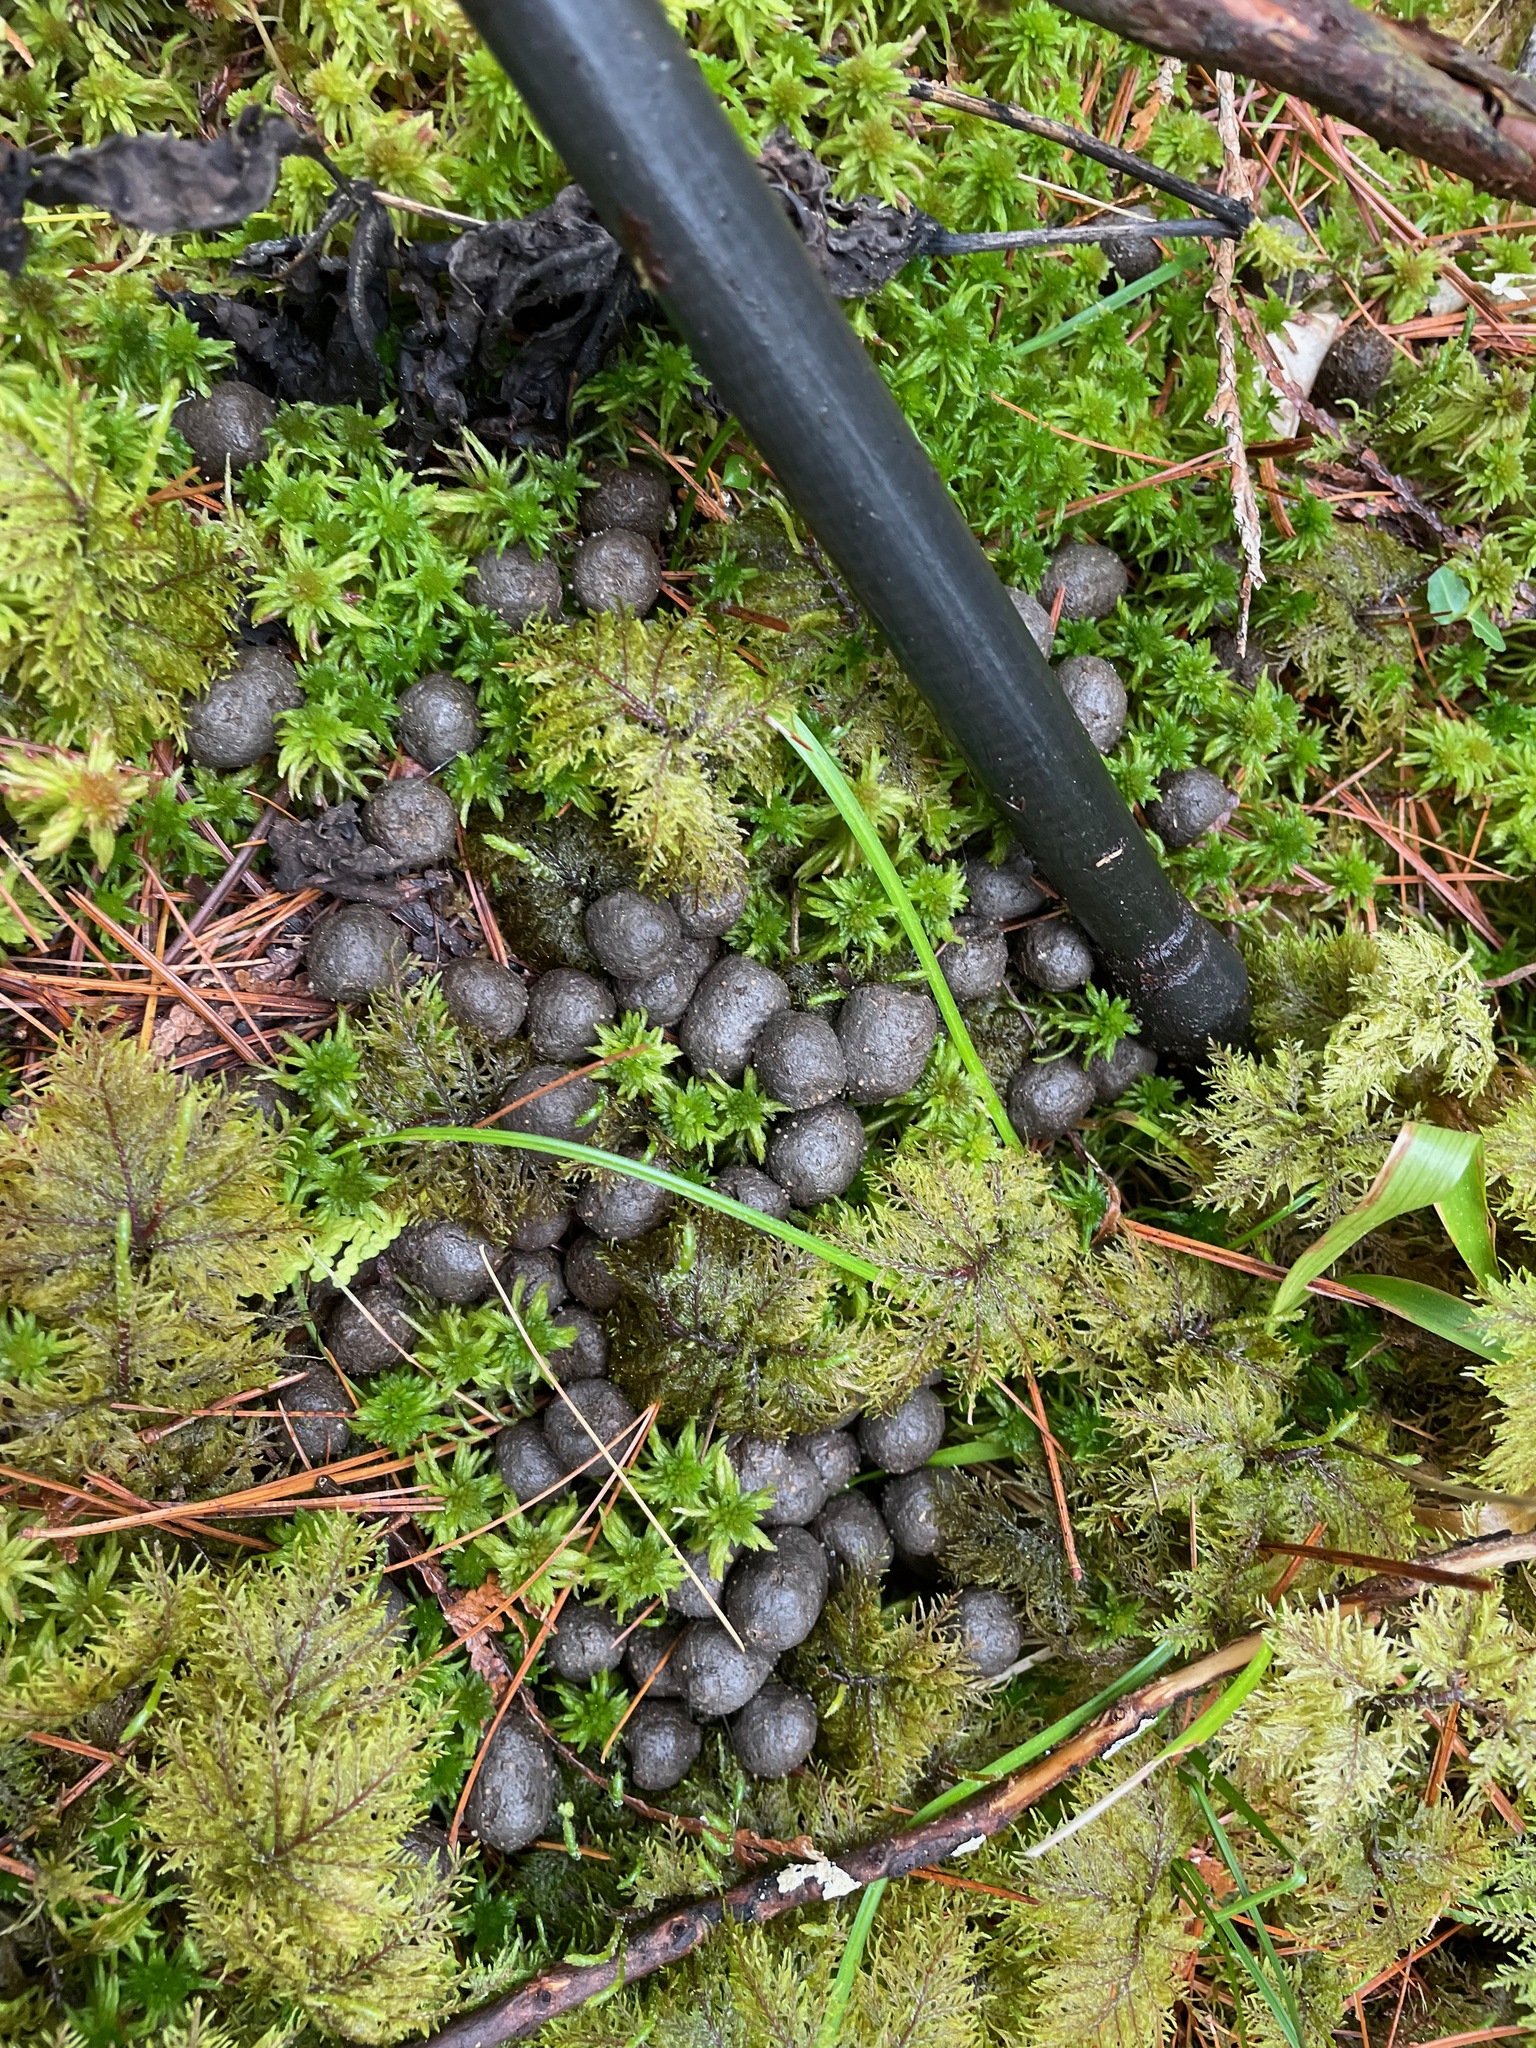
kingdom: Animalia
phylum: Chordata
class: Mammalia
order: Artiodactyla
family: Cervidae
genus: Odocoileus
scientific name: Odocoileus virginianus
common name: White-tailed deer
